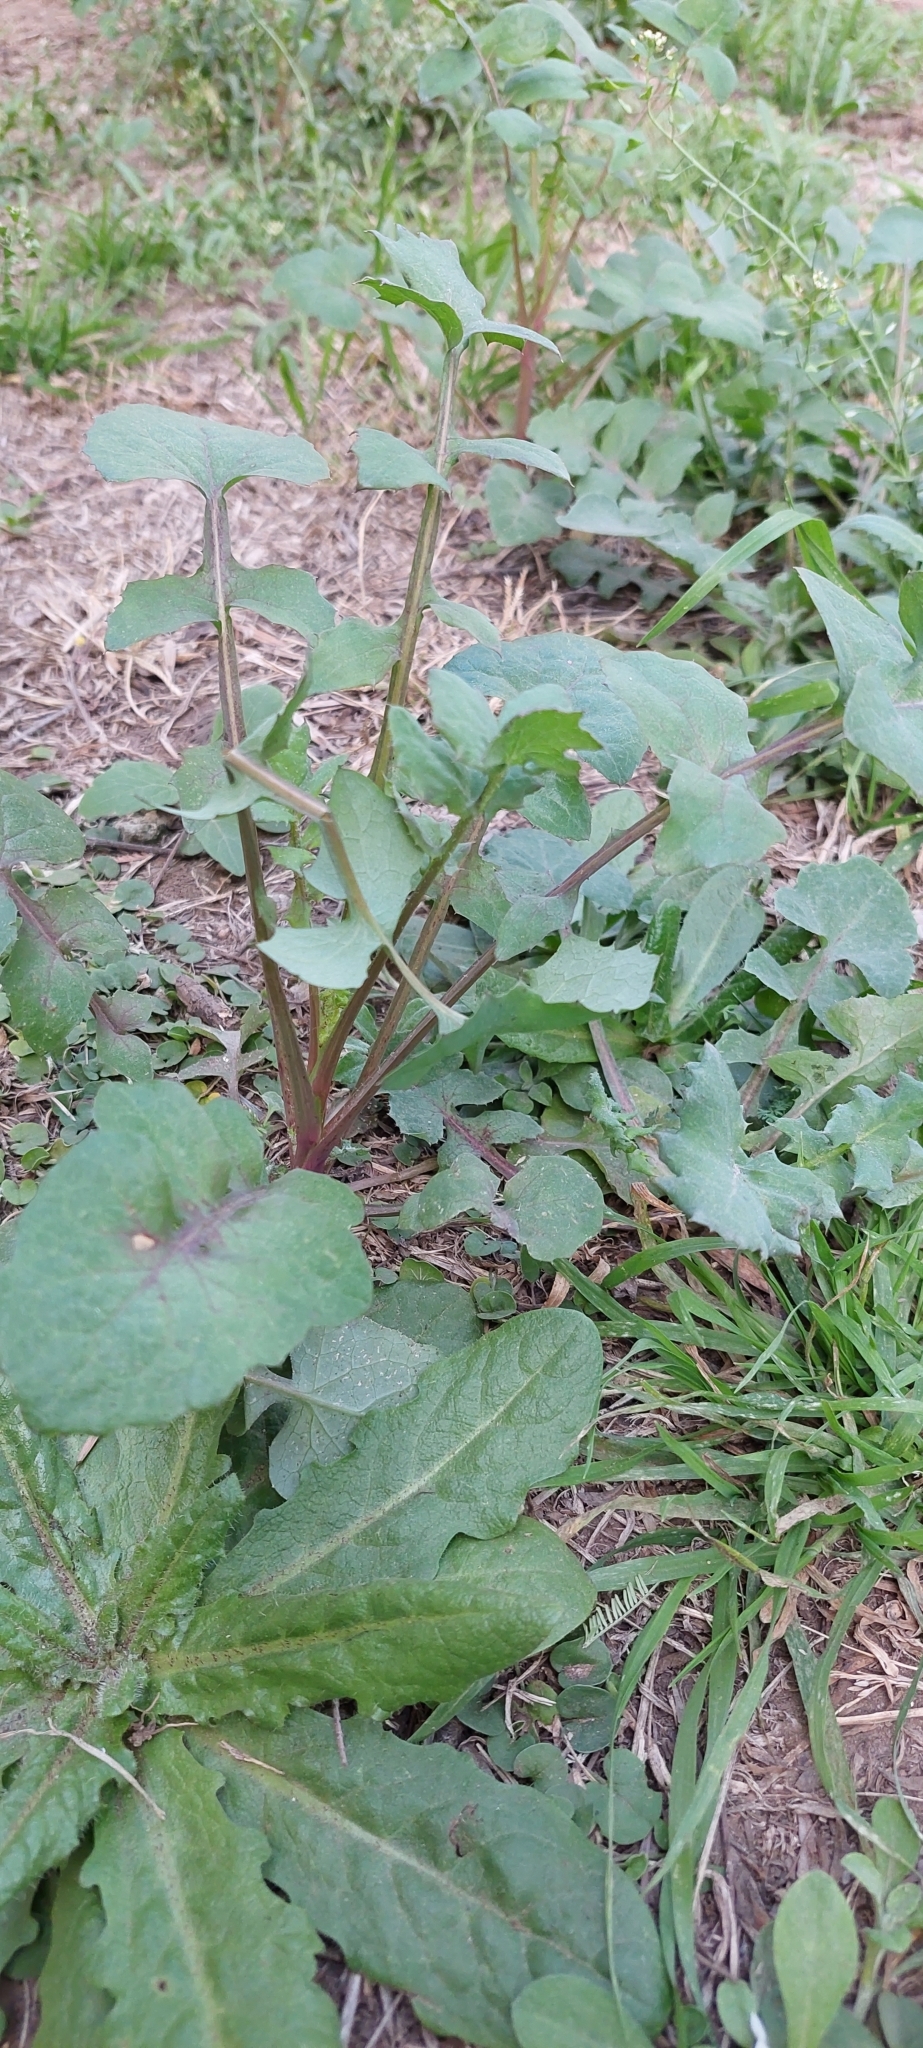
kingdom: Plantae
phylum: Tracheophyta
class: Magnoliopsida
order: Asterales
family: Asteraceae
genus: Sonchus
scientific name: Sonchus oleraceus
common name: Common sowthistle
